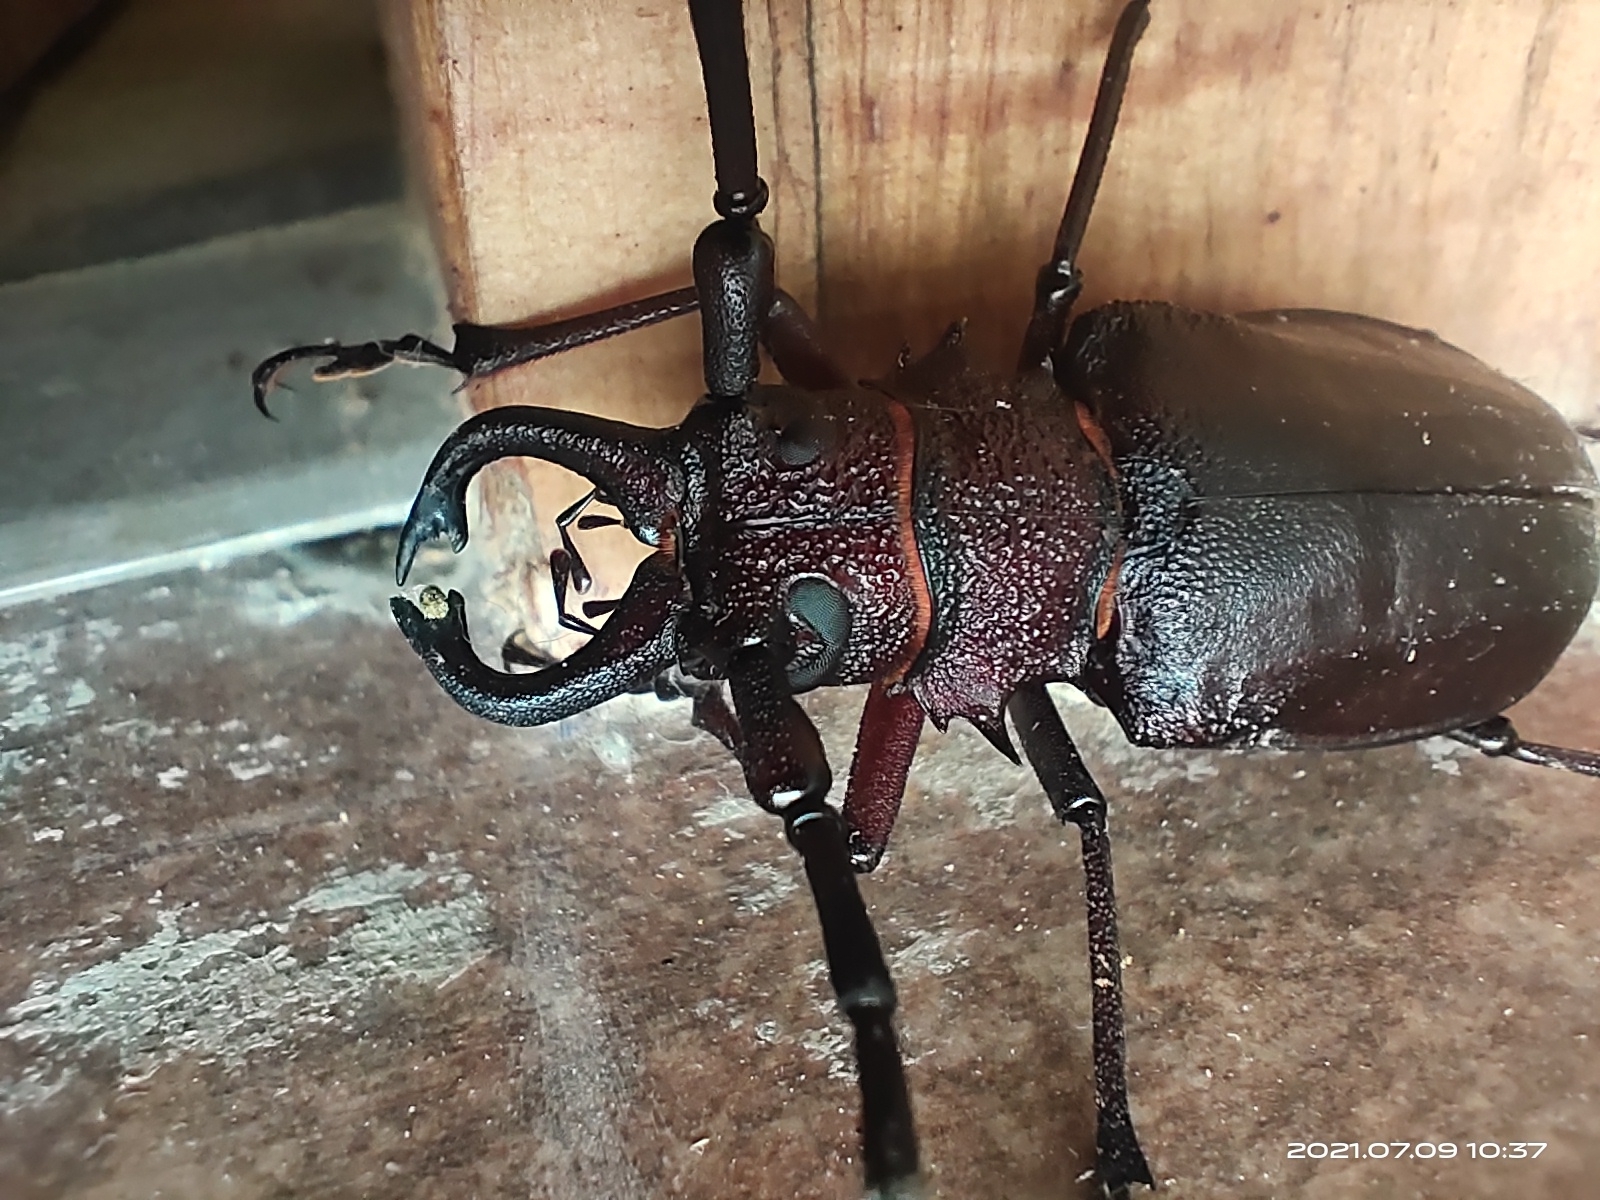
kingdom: Animalia
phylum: Arthropoda
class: Insecta
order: Coleoptera
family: Cerambycidae
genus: Priotyrannus
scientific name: Priotyrannus mordax
